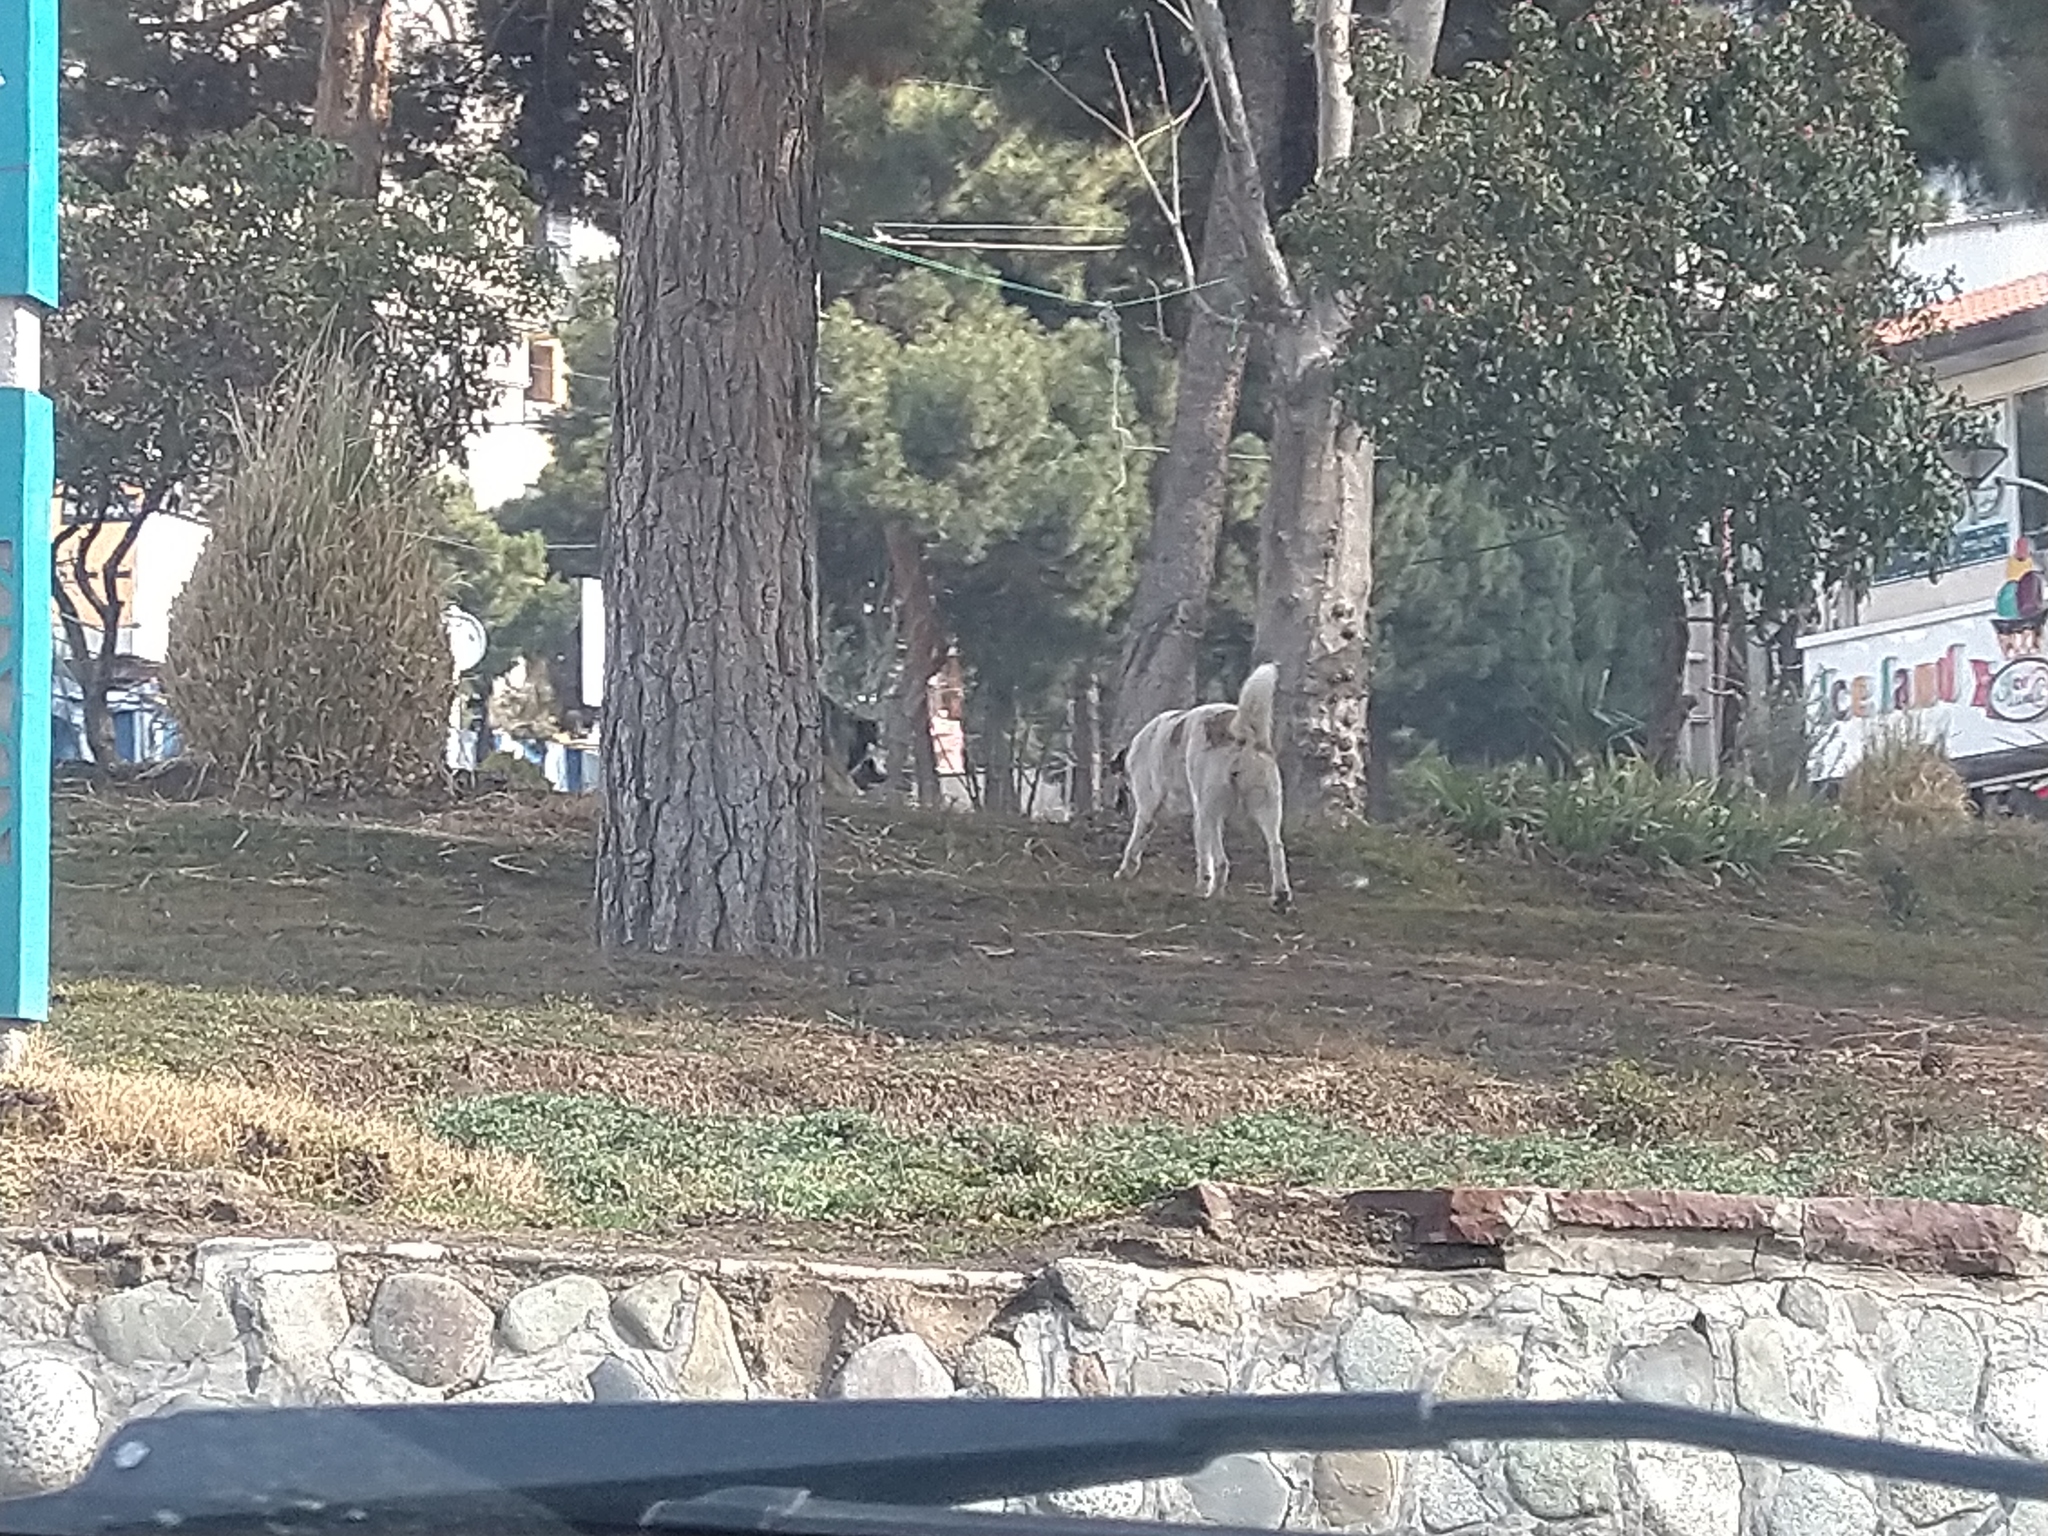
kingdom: Animalia
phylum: Chordata
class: Mammalia
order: Carnivora
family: Canidae
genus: Canis
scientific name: Canis lupus
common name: Gray wolf
